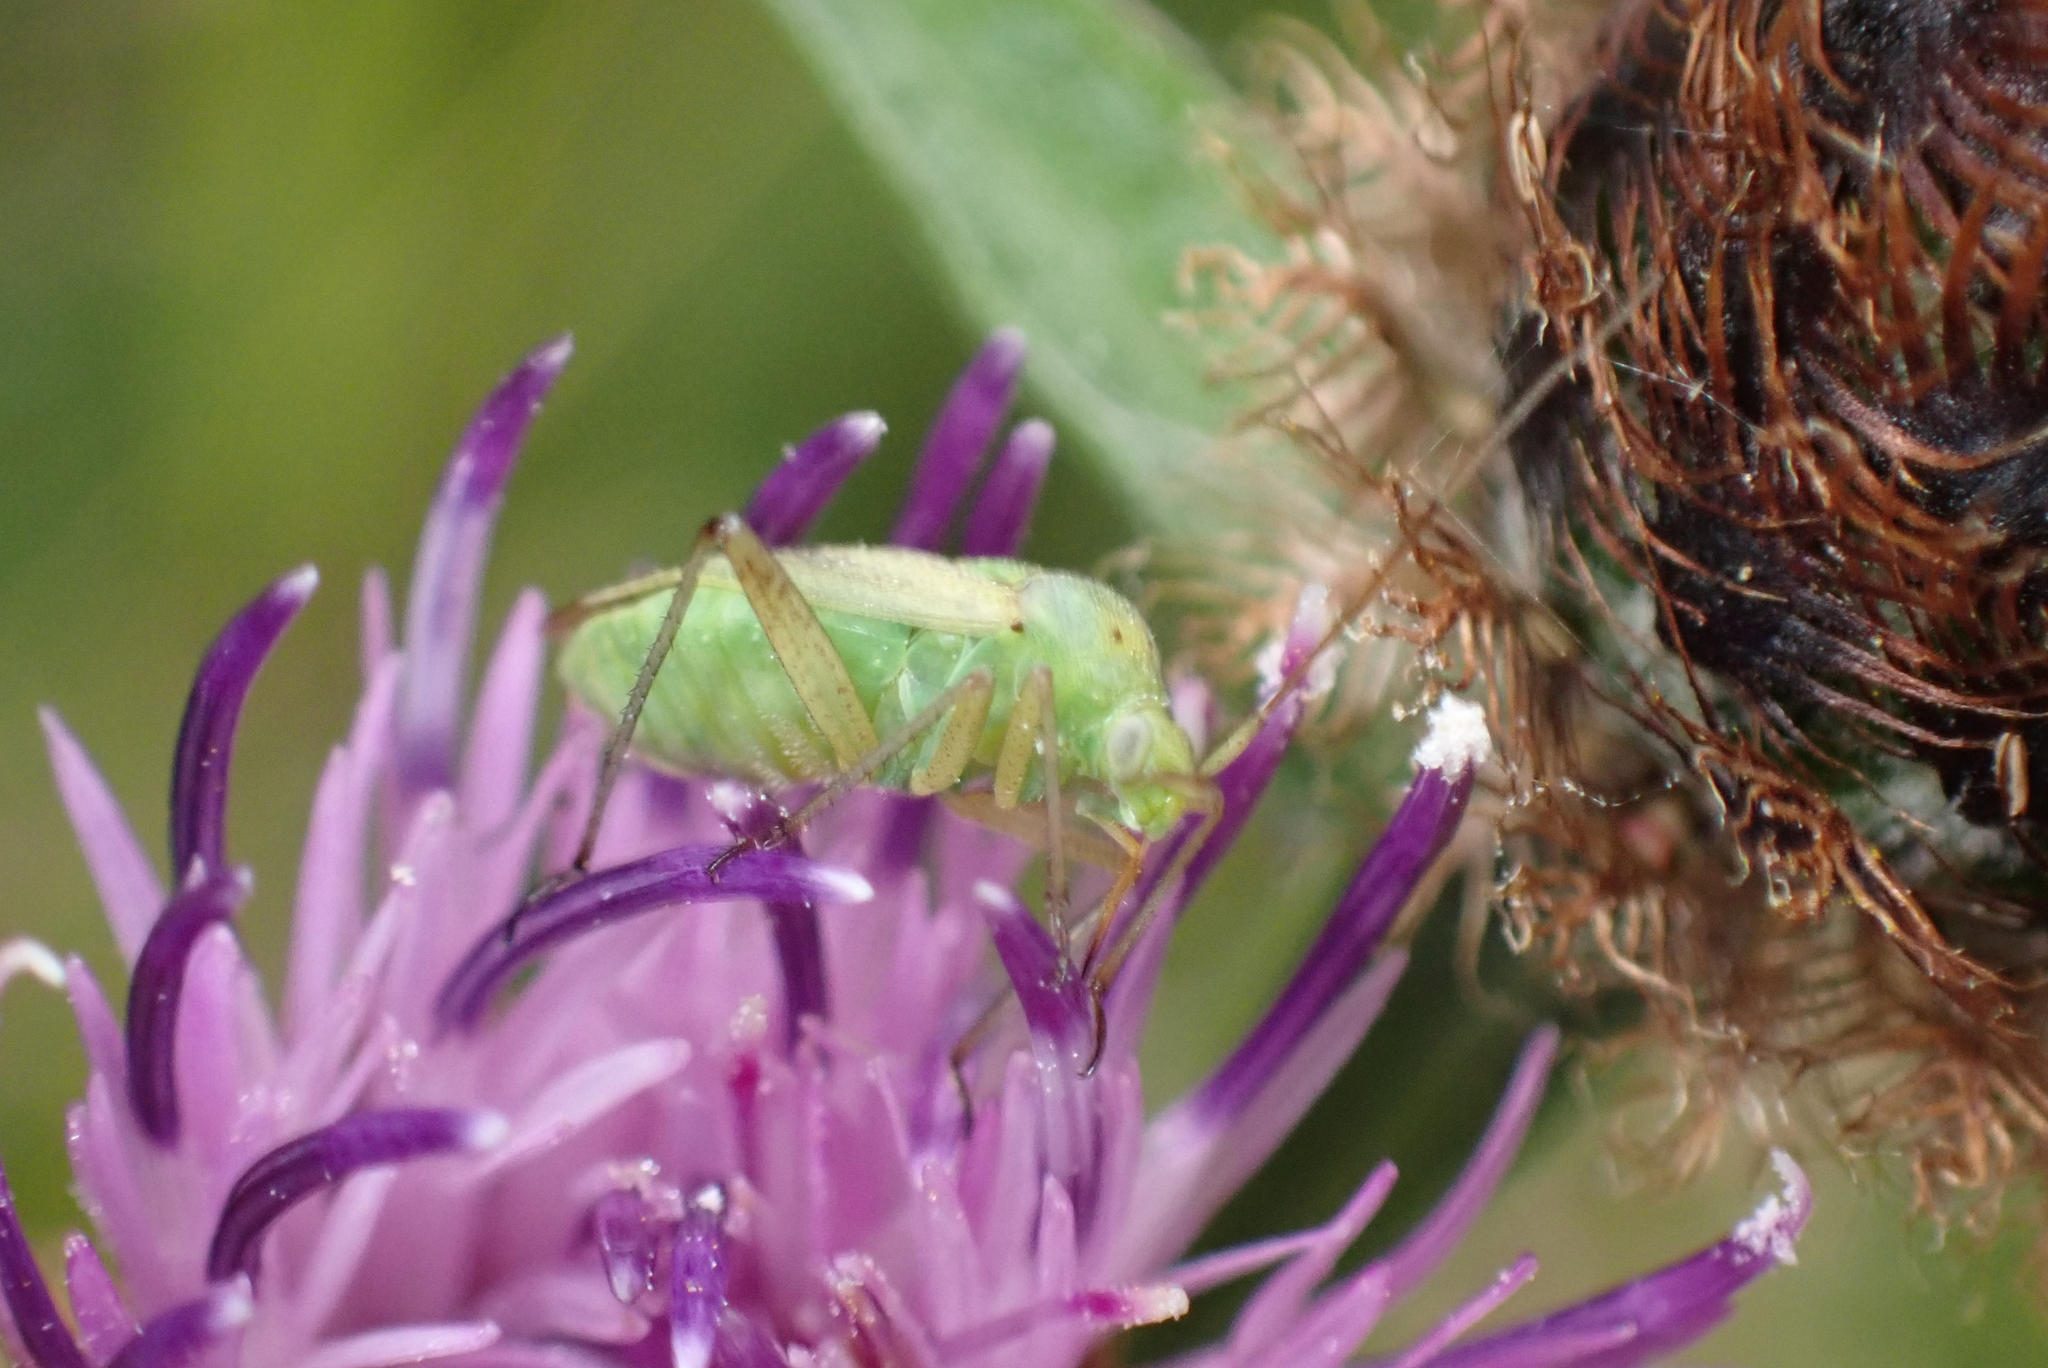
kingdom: Animalia
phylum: Arthropoda
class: Insecta
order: Hemiptera
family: Miridae
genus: Closterotomus
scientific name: Closterotomus norvegicus
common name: Plant bug
